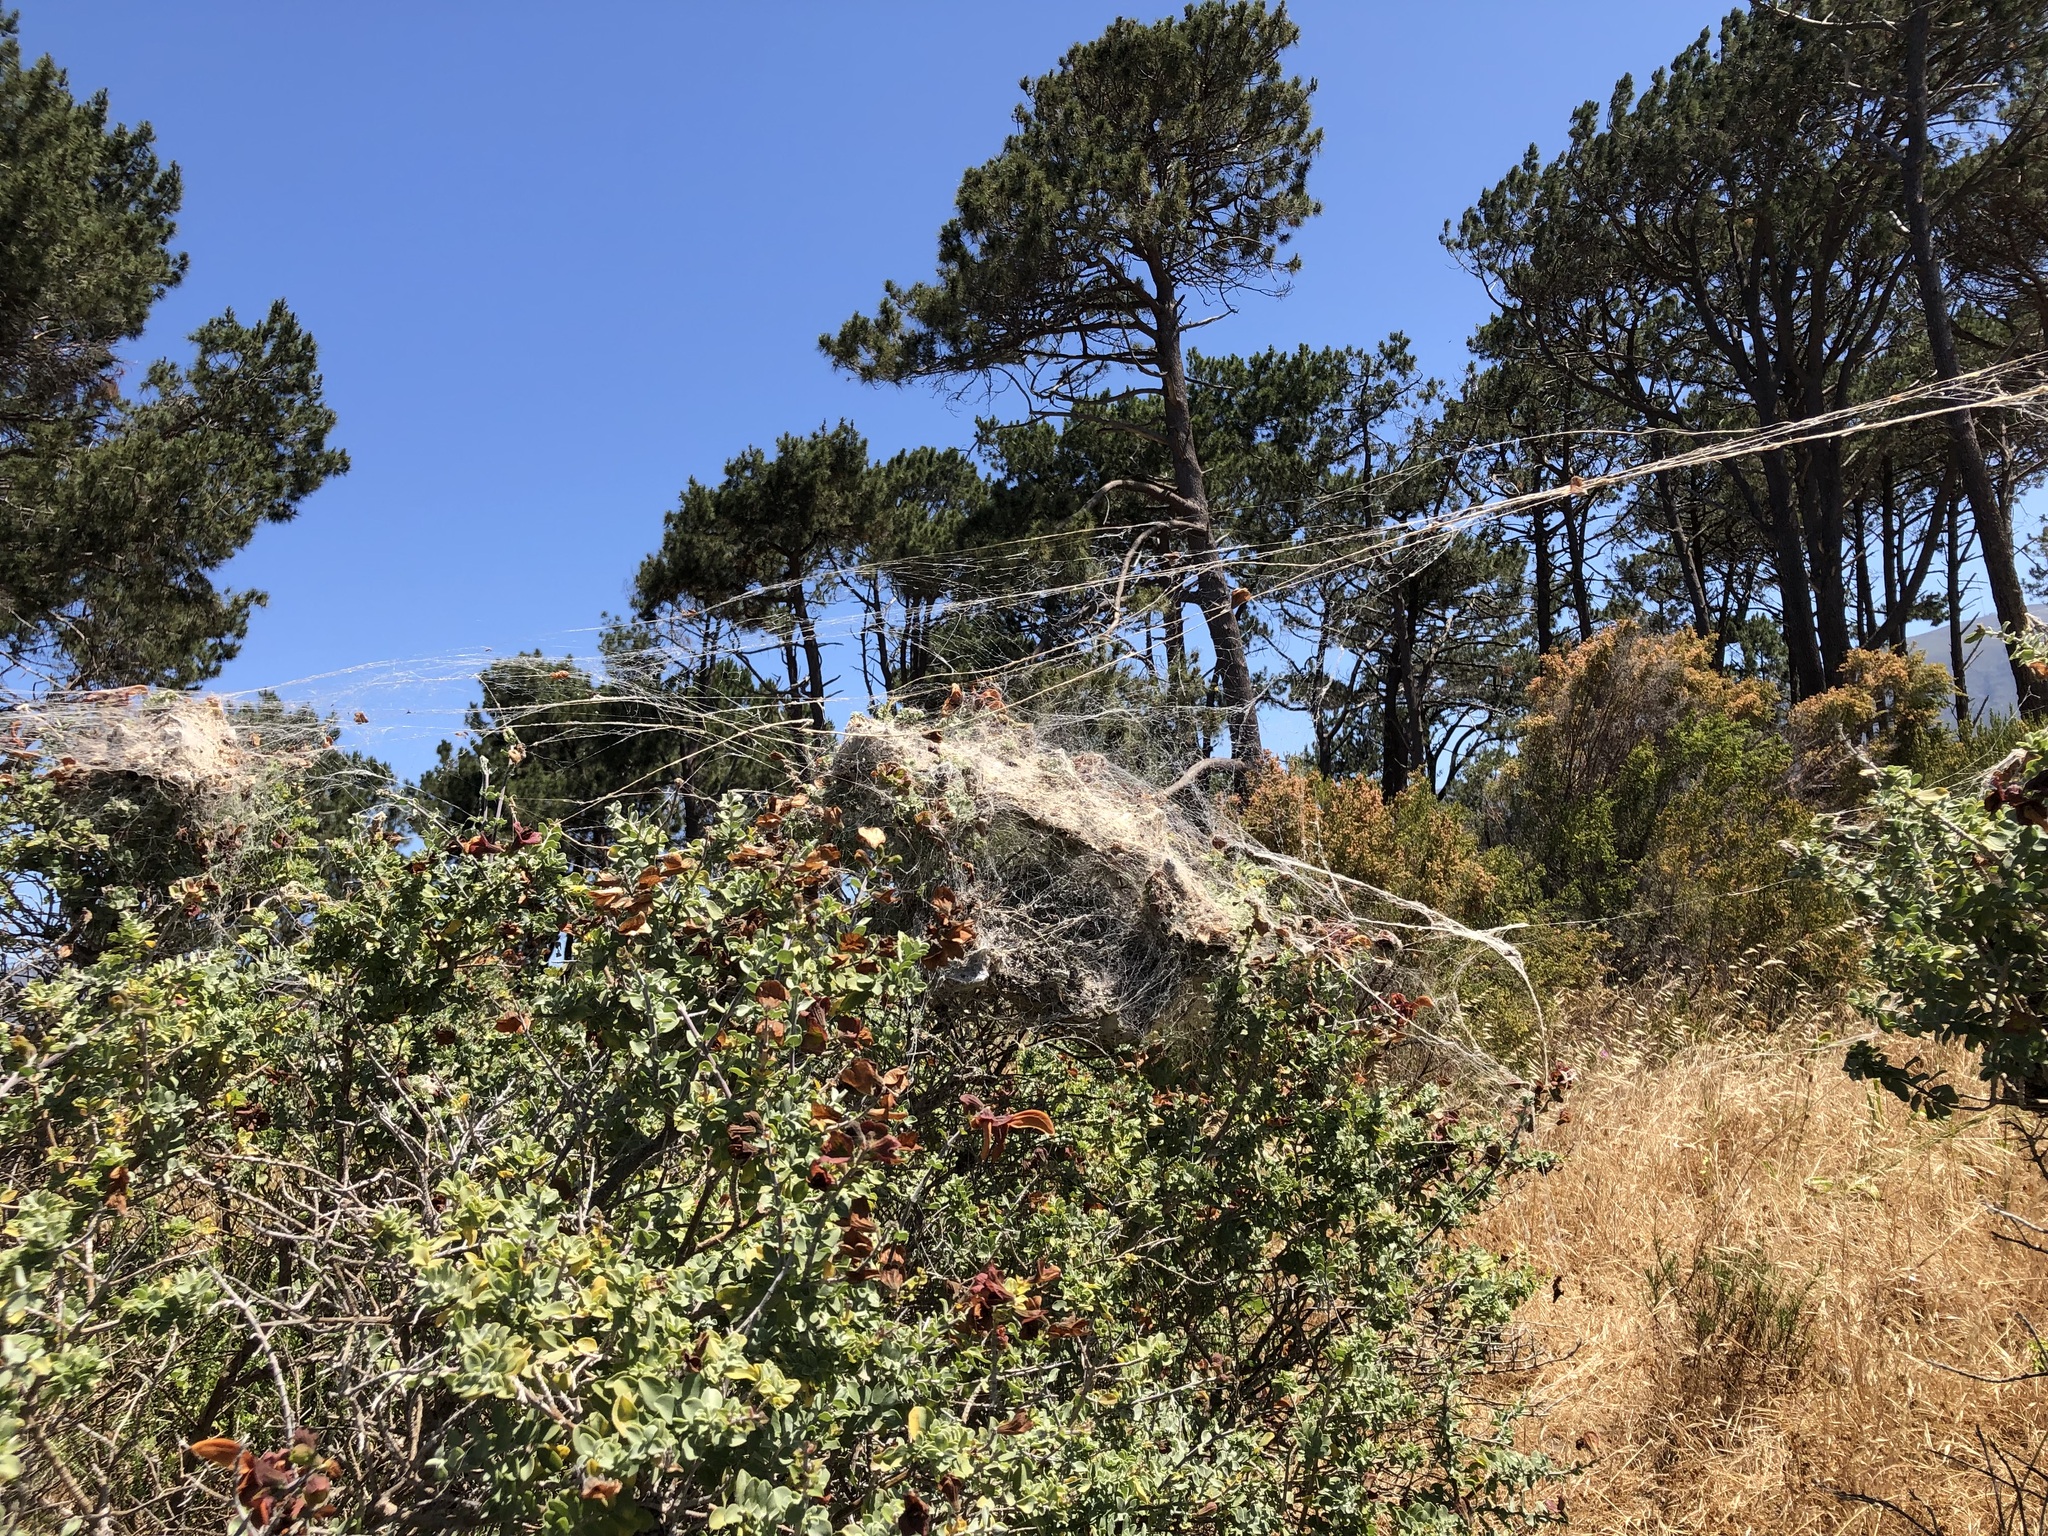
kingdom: Animalia
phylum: Arthropoda
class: Arachnida
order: Araneae
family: Eresidae
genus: Stegodyphus
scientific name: Stegodyphus dumicola
